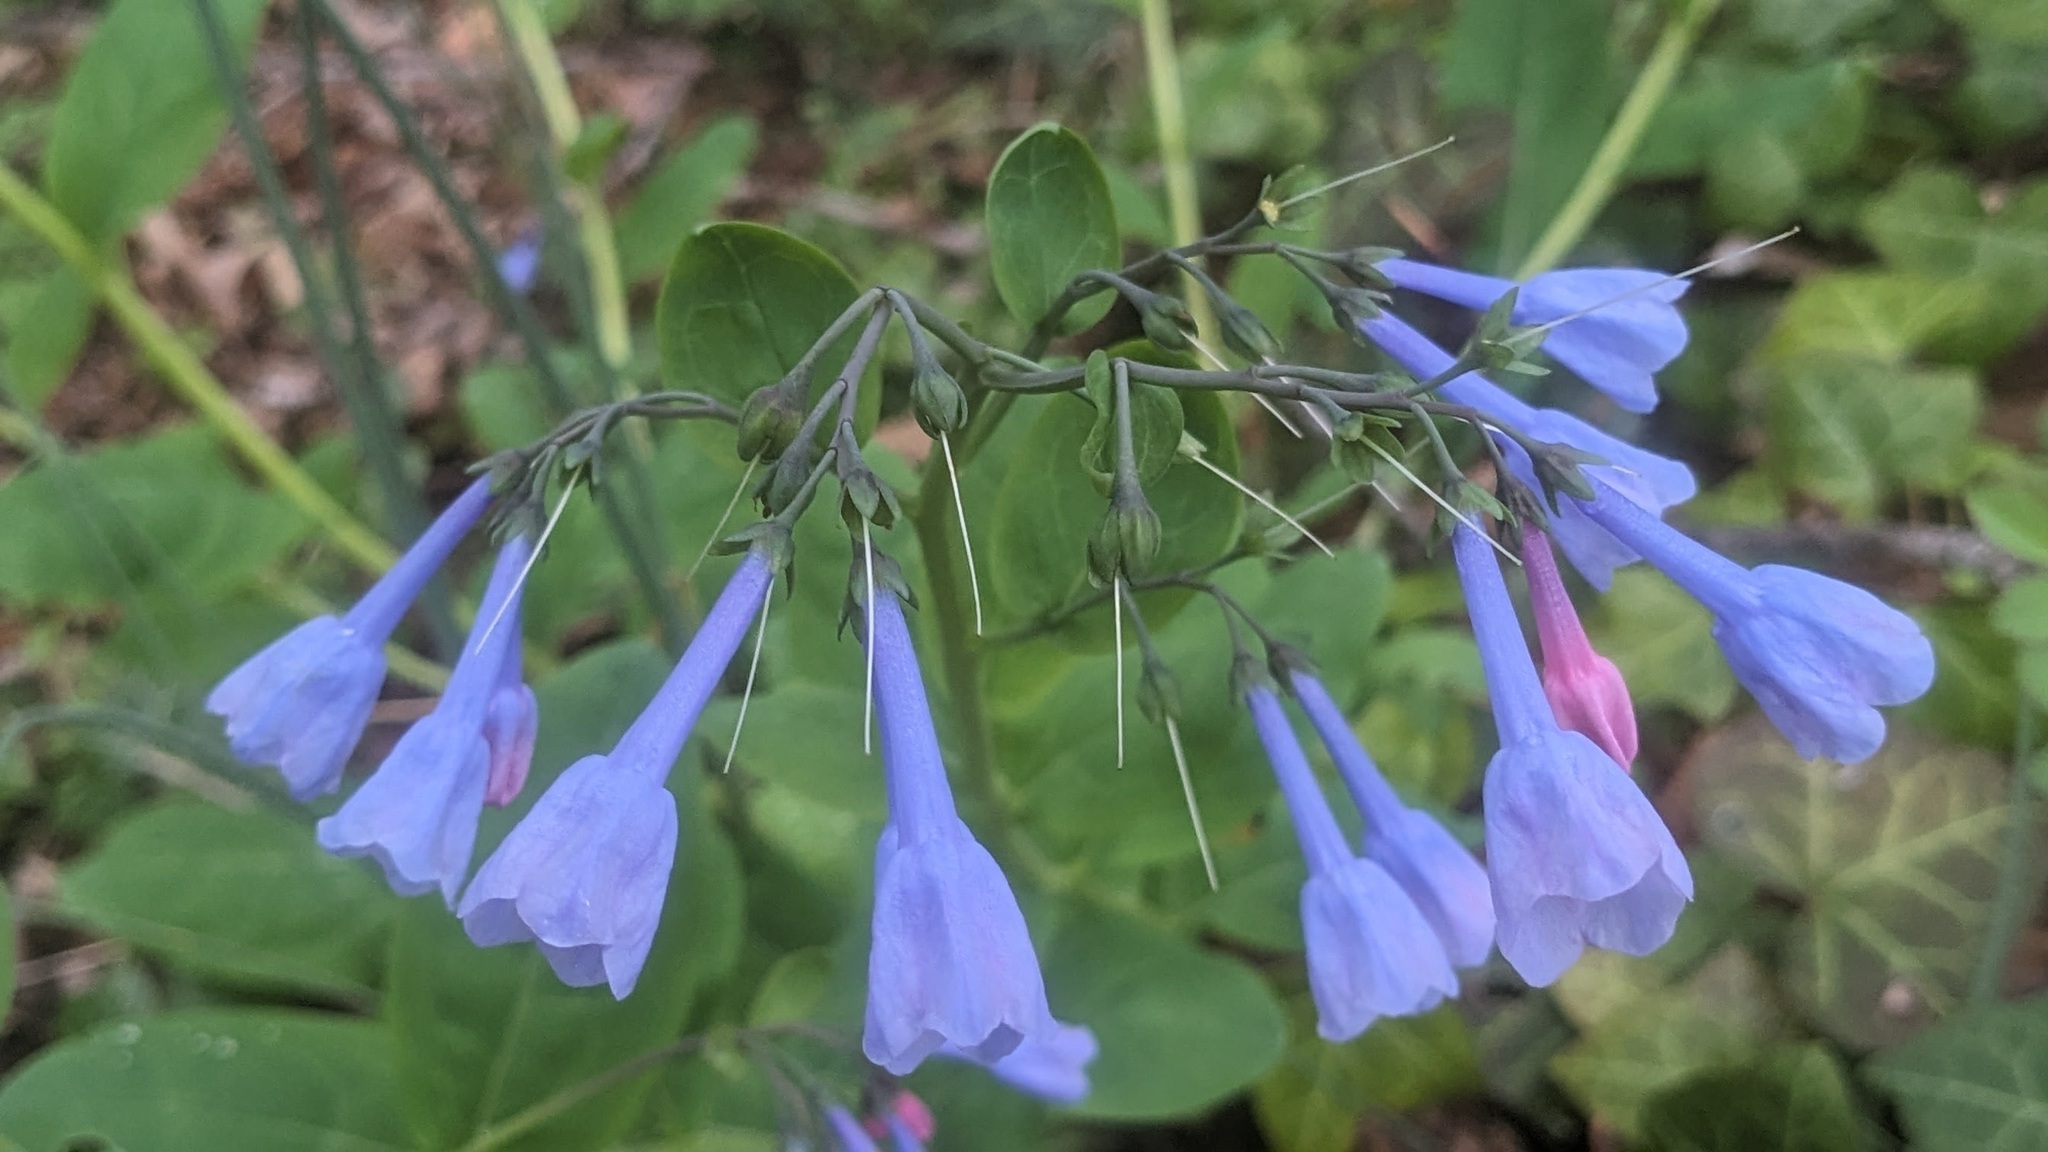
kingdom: Plantae
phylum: Tracheophyta
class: Magnoliopsida
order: Boraginales
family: Boraginaceae
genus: Mertensia
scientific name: Mertensia virginica
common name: Virginia bluebells
